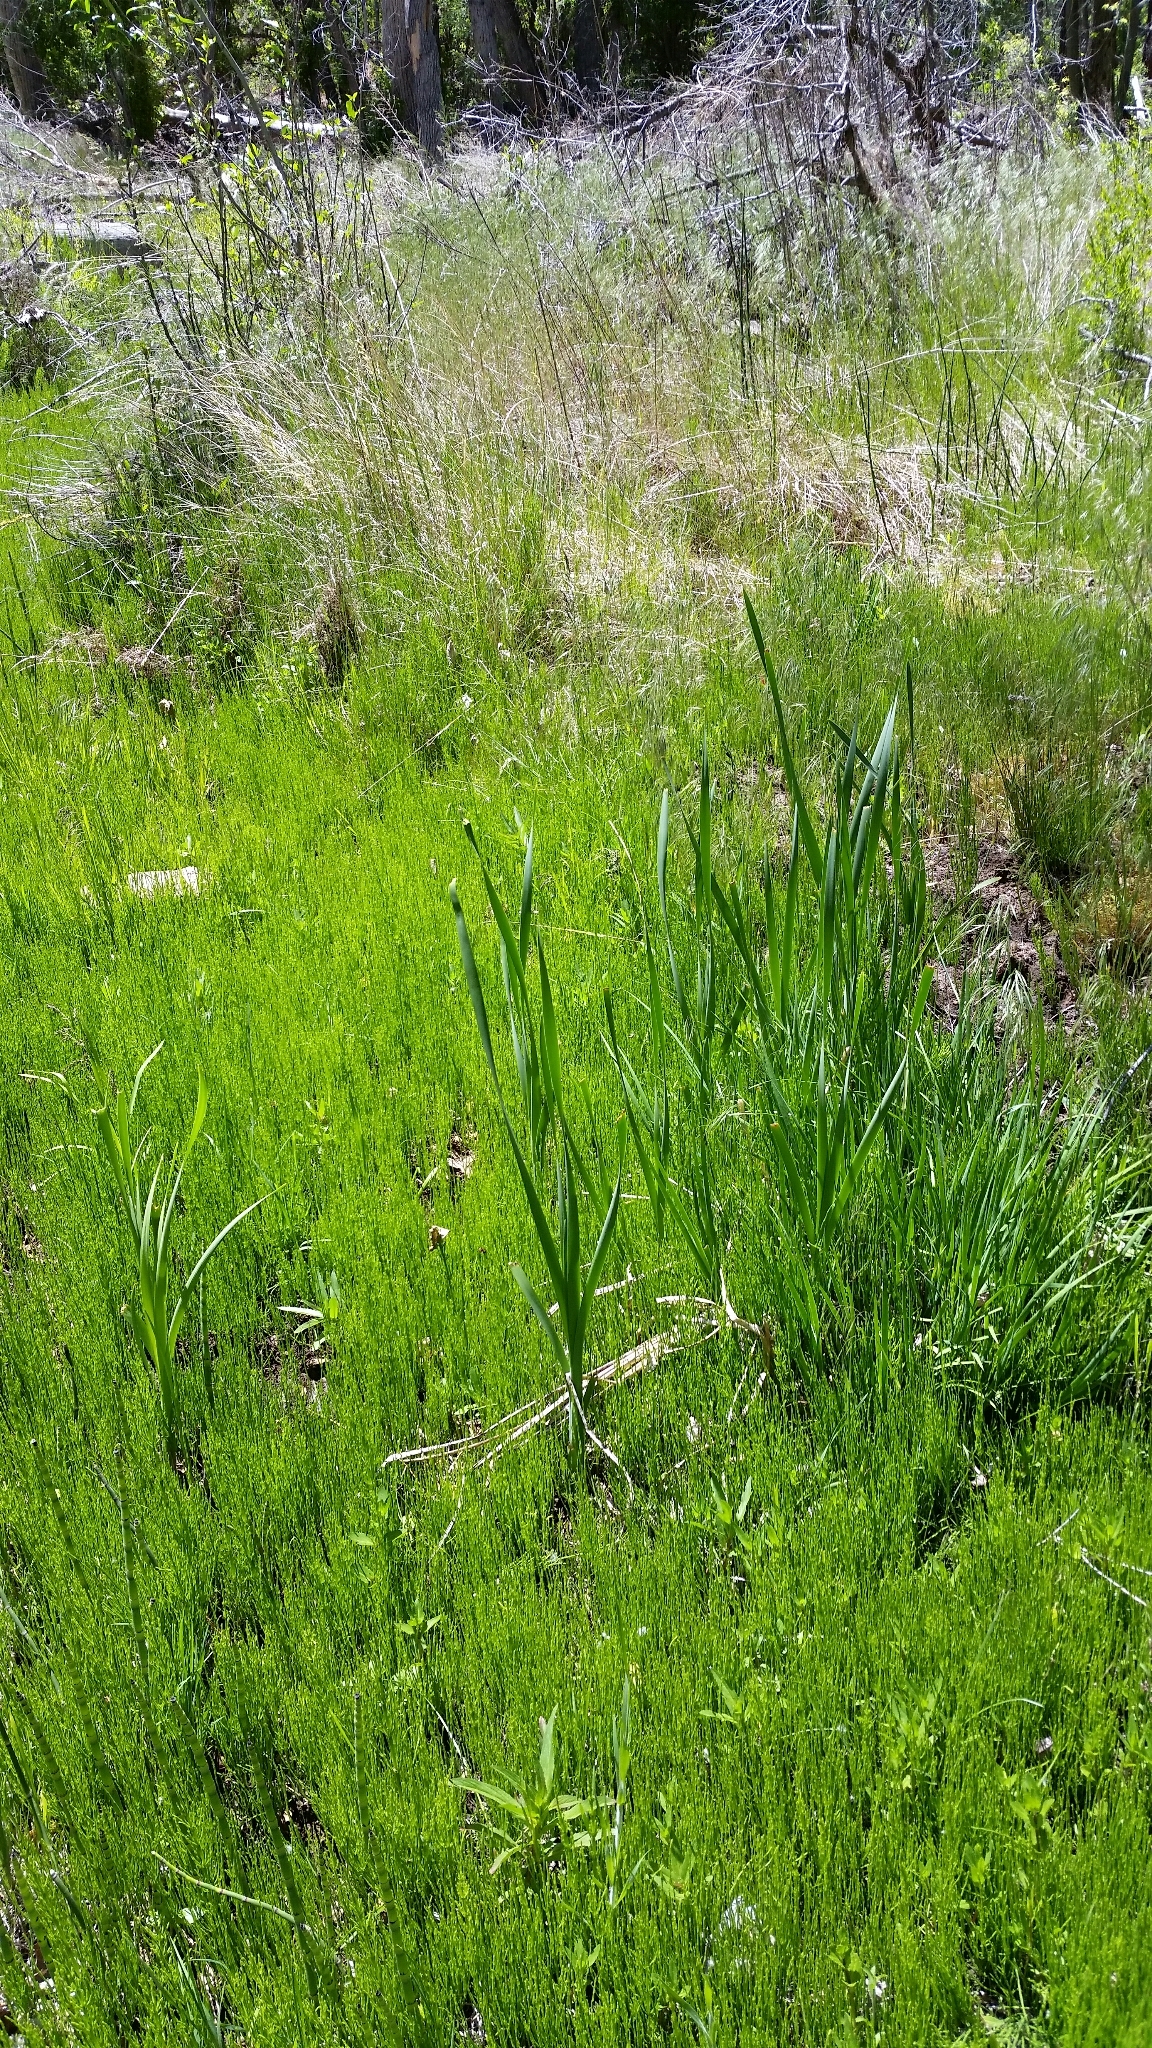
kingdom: Plantae
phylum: Tracheophyta
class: Liliopsida
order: Poales
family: Typhaceae
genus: Typha
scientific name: Typha latifolia
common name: Broadleaf cattail
